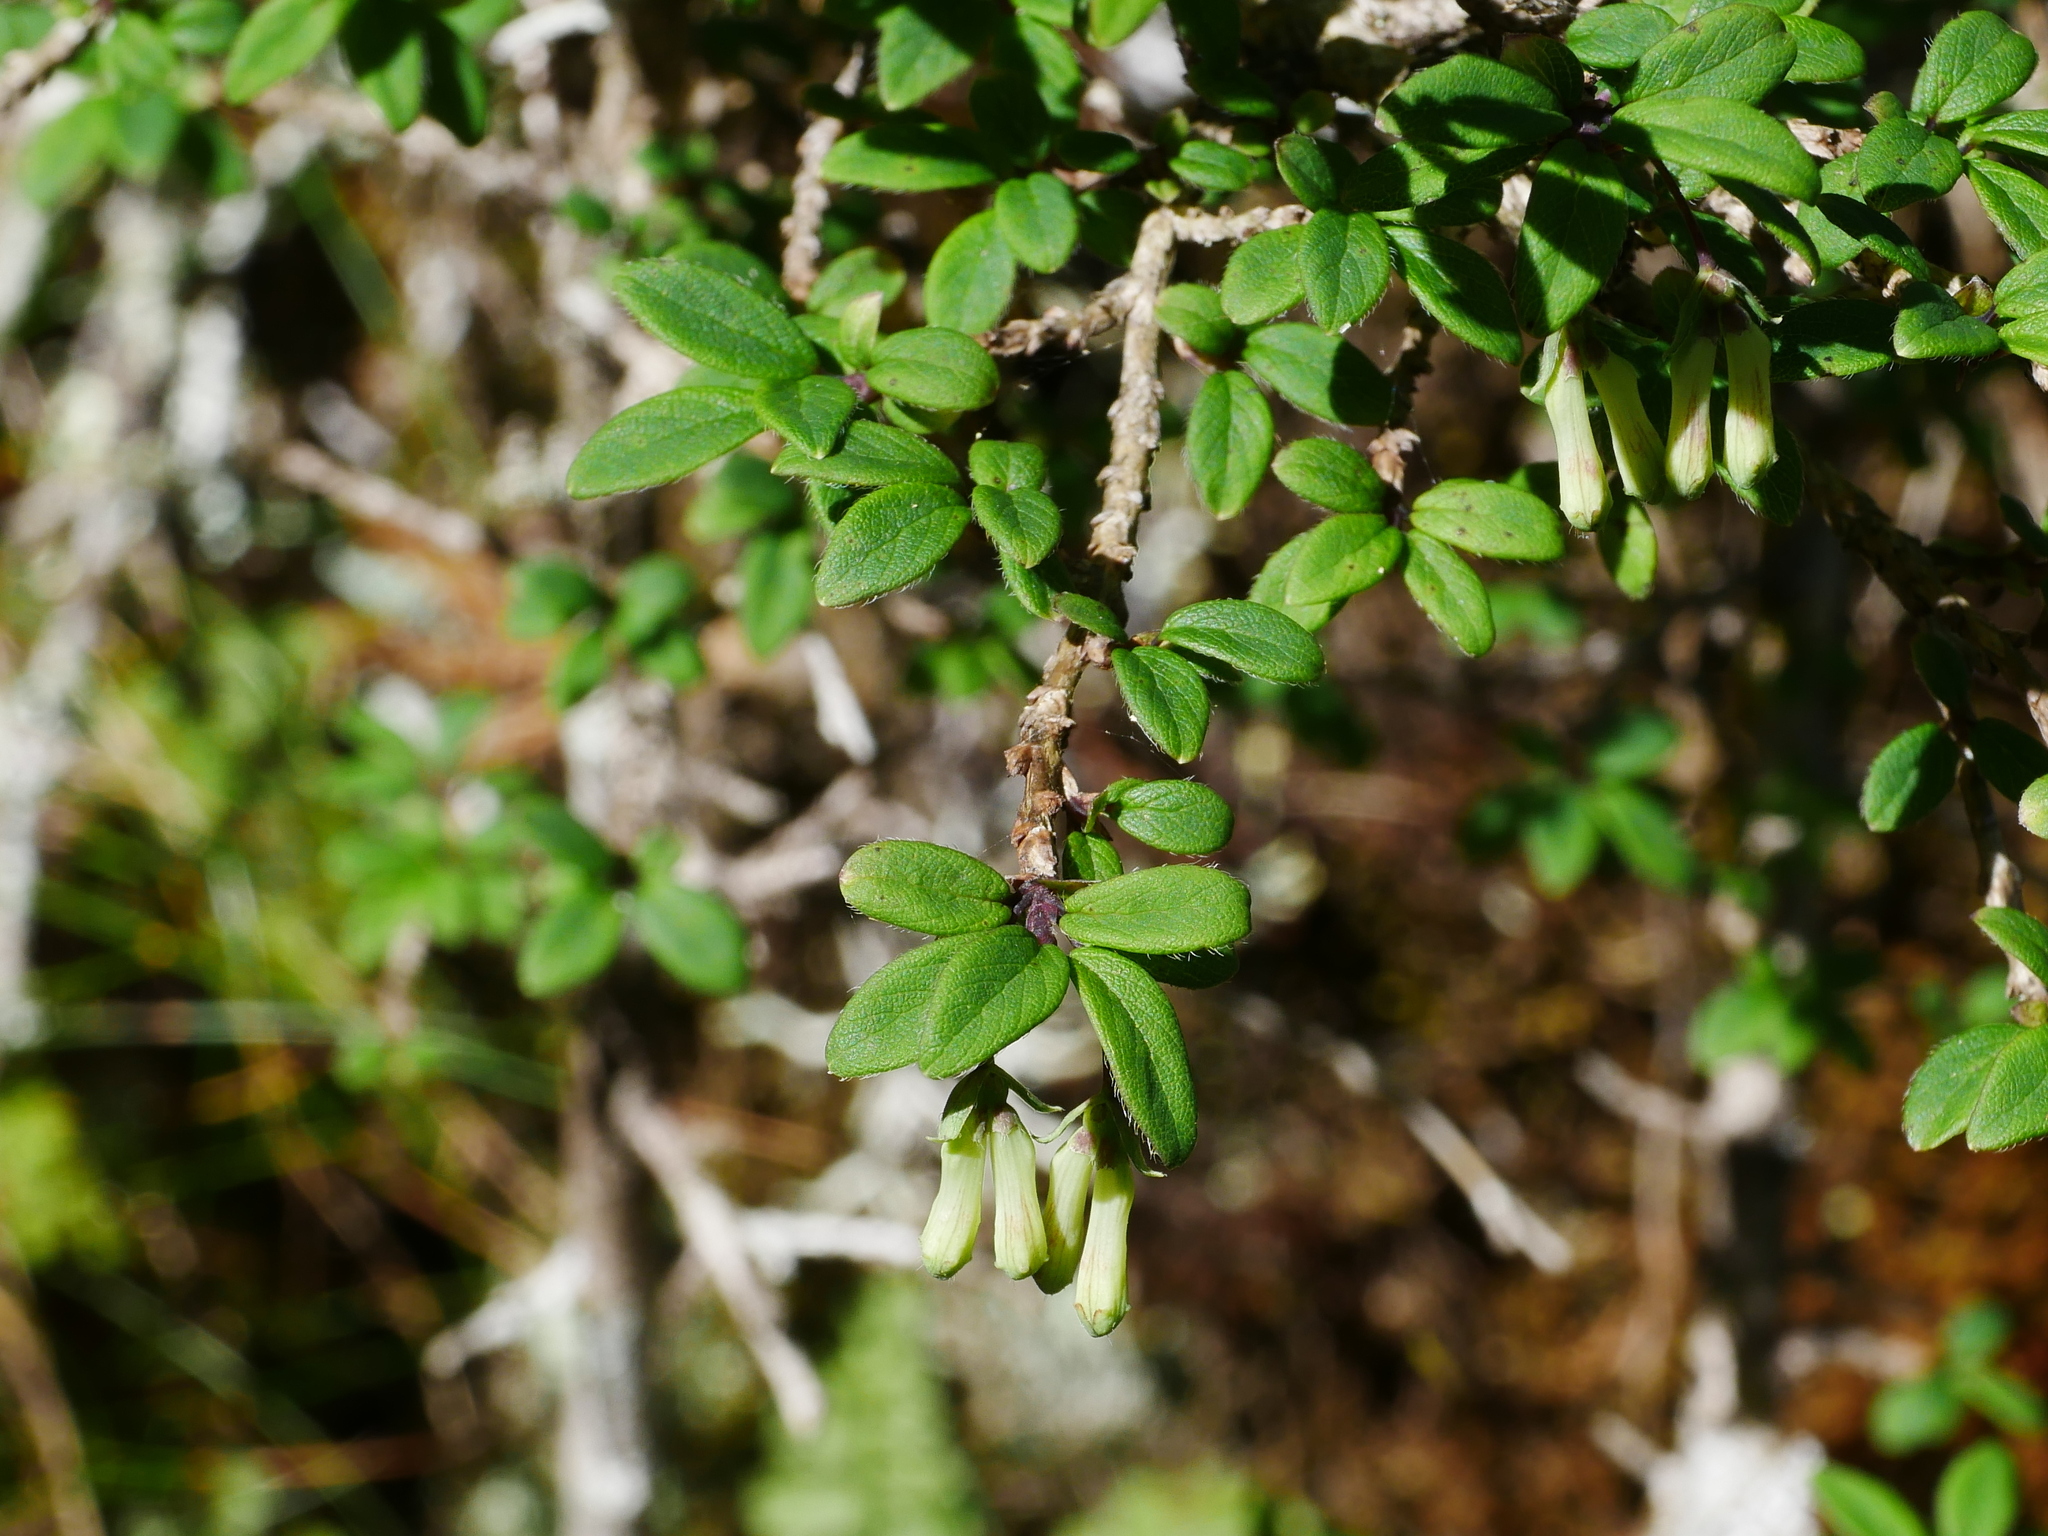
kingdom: Plantae
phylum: Tracheophyta
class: Magnoliopsida
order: Dipsacales
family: Caprifoliaceae
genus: Lonicera
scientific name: Lonicera kawakamii
